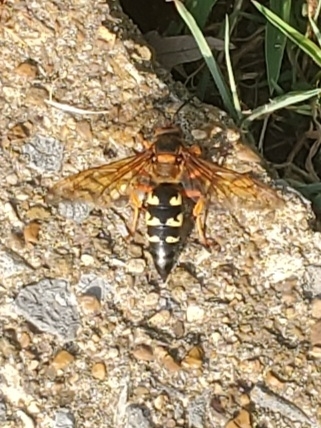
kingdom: Animalia
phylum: Arthropoda
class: Insecta
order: Hymenoptera
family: Crabronidae
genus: Sphecius
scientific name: Sphecius speciosus
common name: Cicada killer
